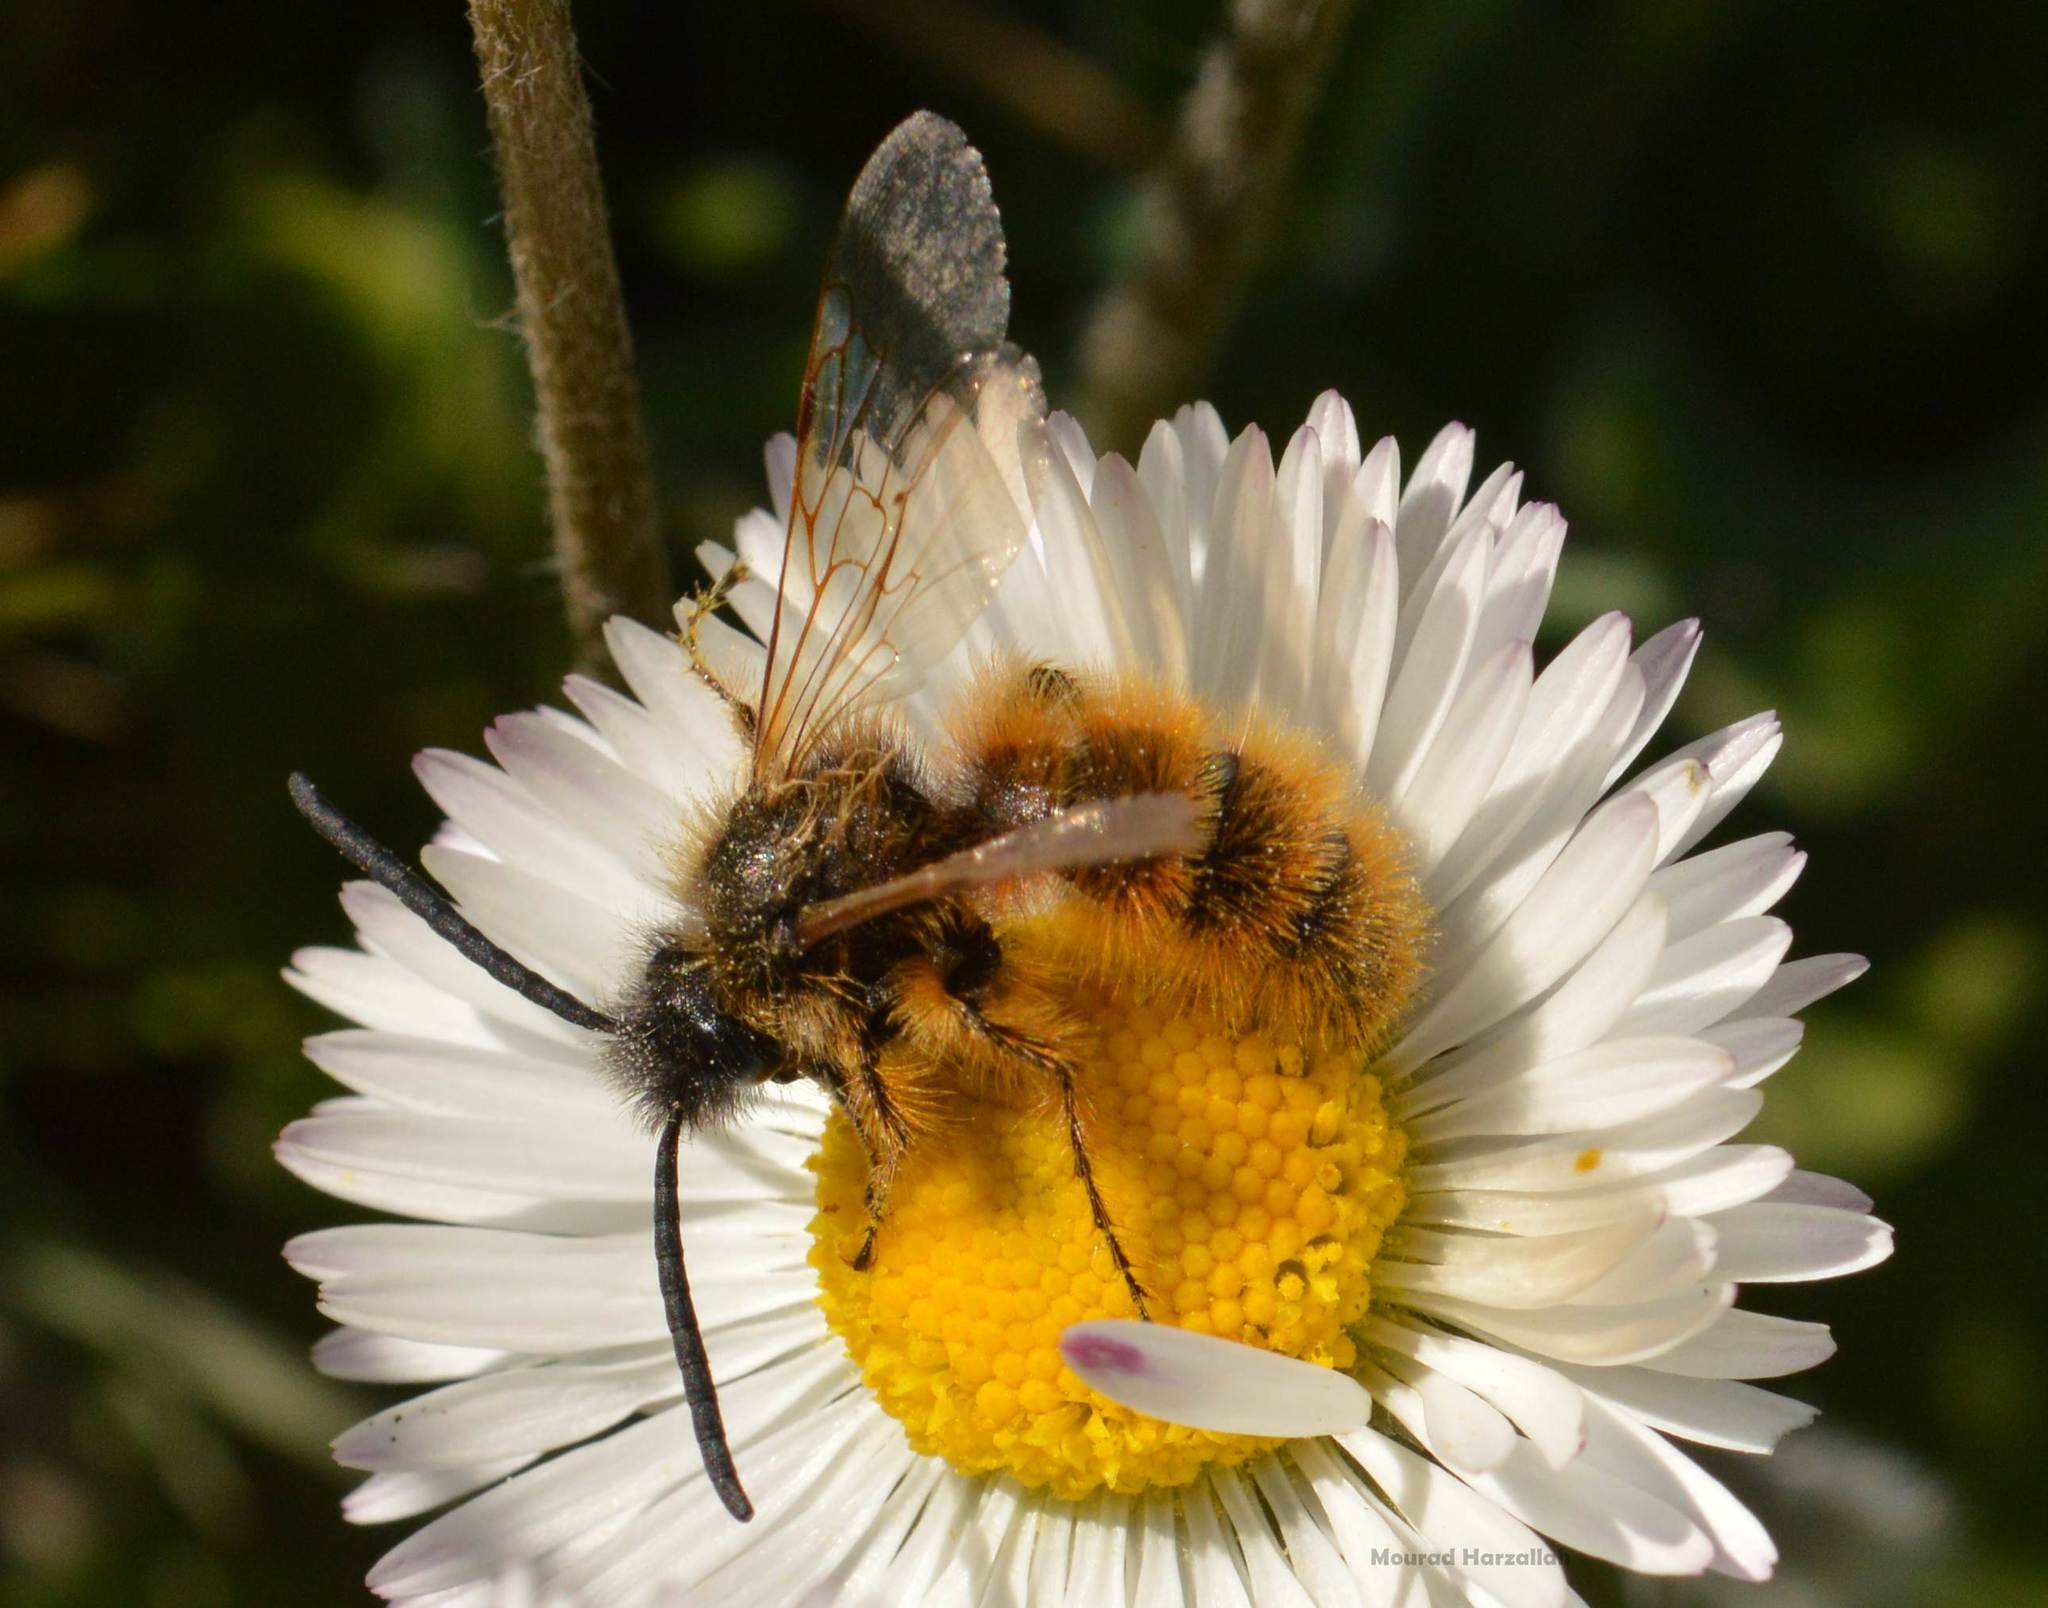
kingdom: Animalia
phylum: Arthropoda
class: Insecta
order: Hymenoptera
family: Scoliidae
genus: Dasyscolia
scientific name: Dasyscolia ciliata
